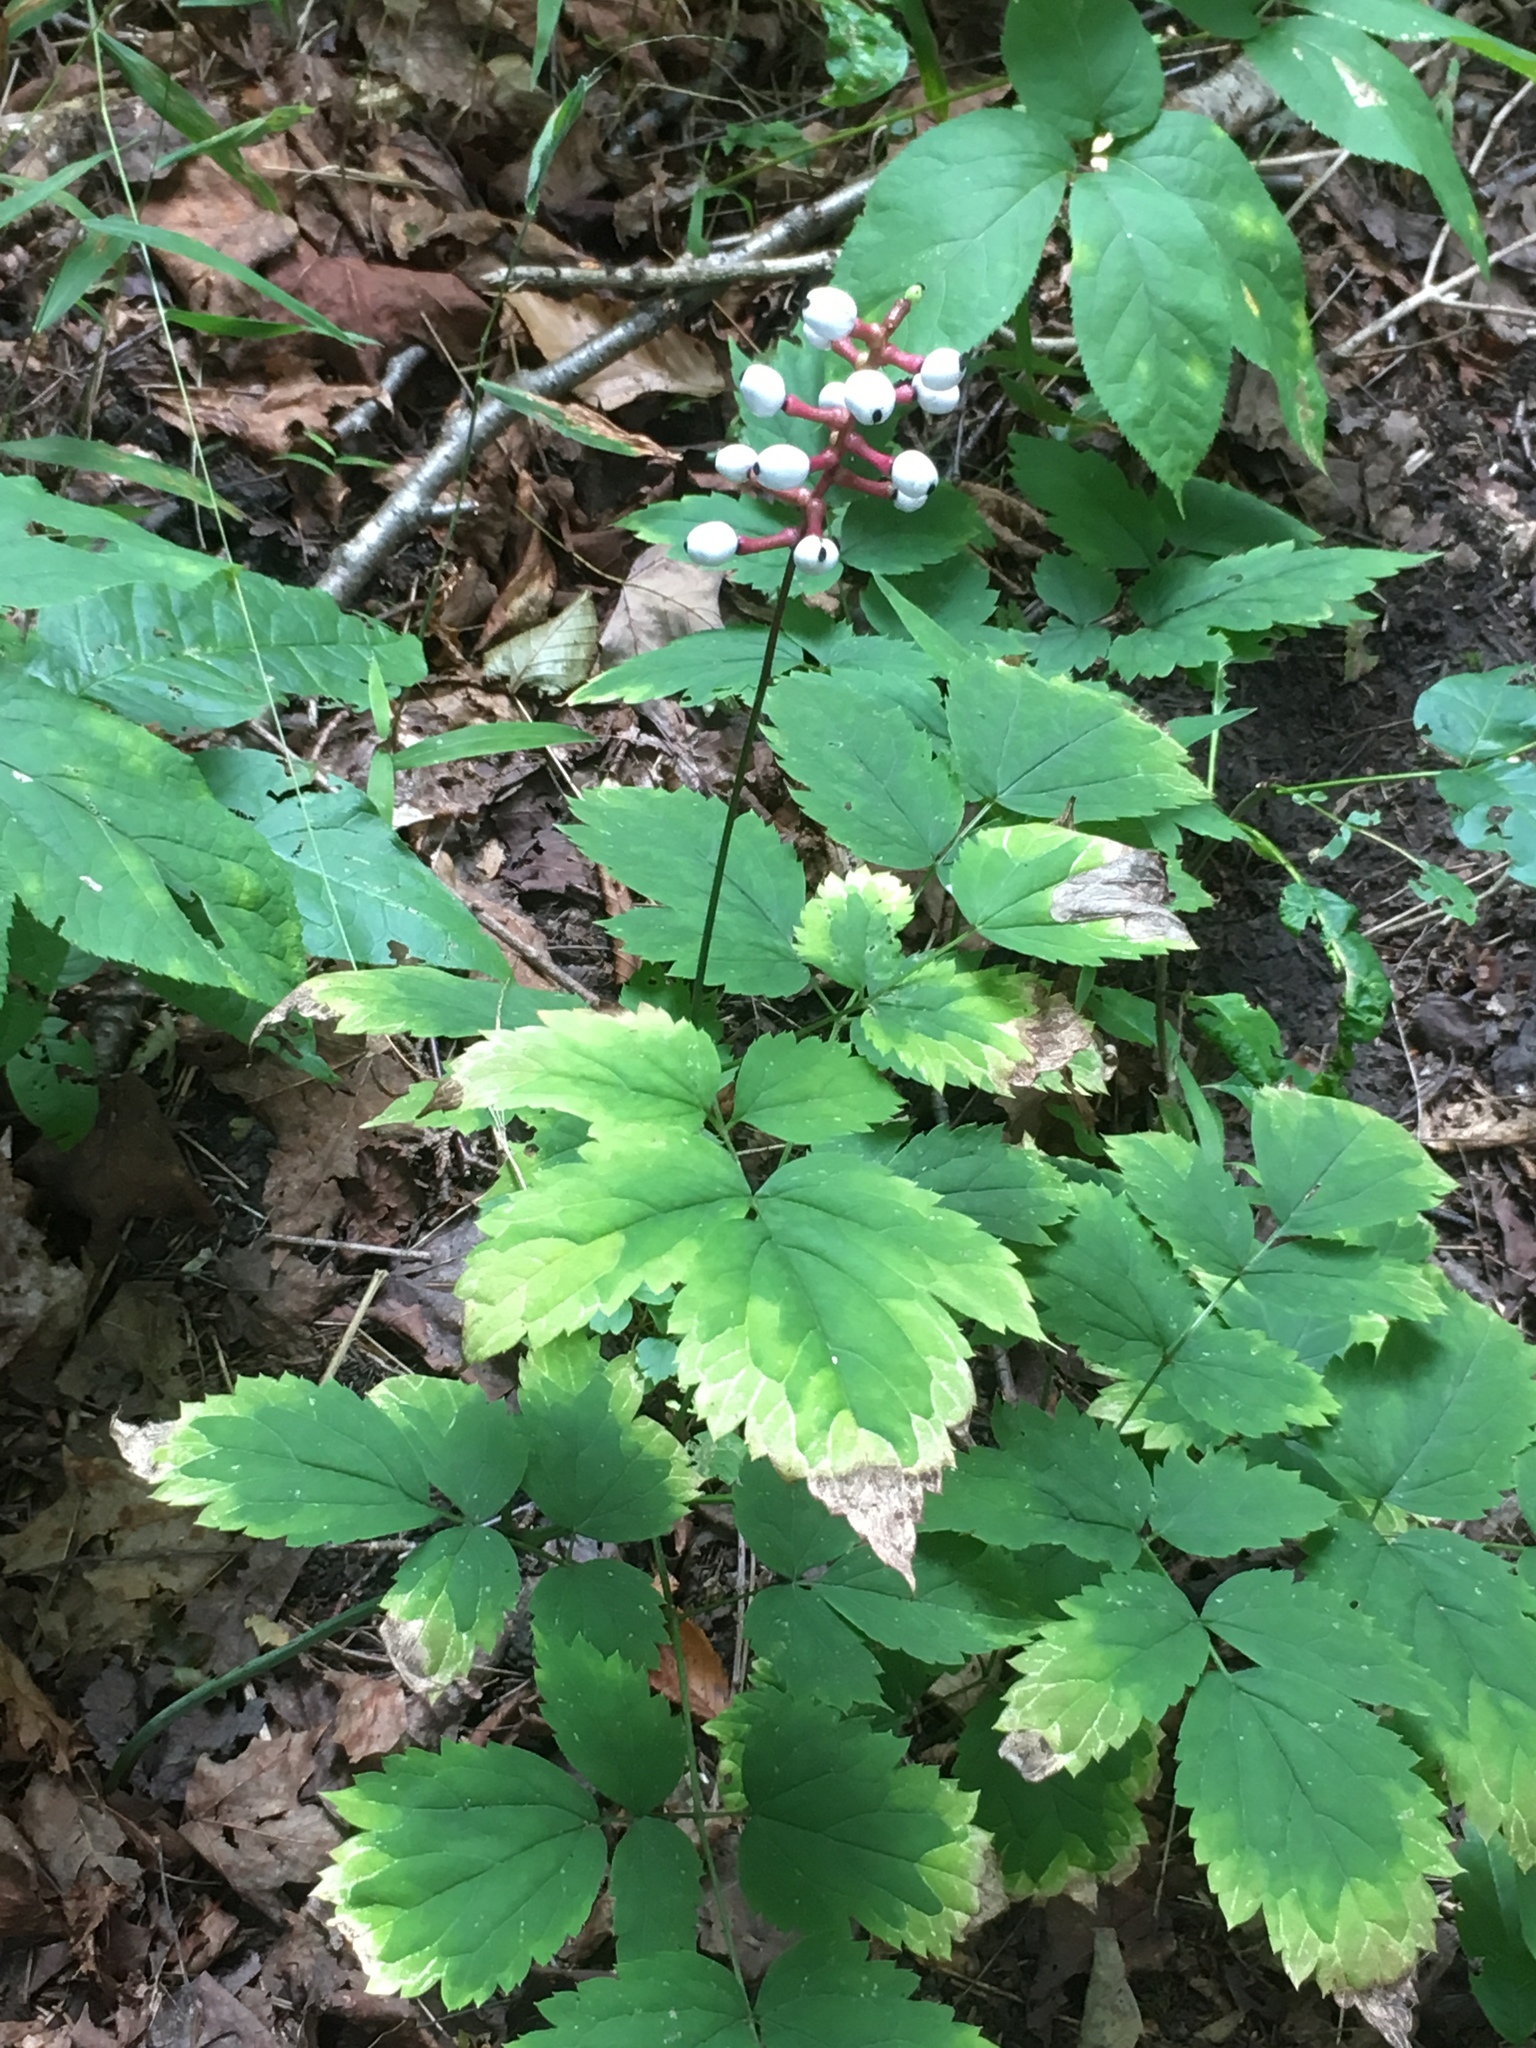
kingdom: Plantae
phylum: Tracheophyta
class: Magnoliopsida
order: Ranunculales
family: Ranunculaceae
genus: Actaea
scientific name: Actaea pachypoda
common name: Doll's-eyes
